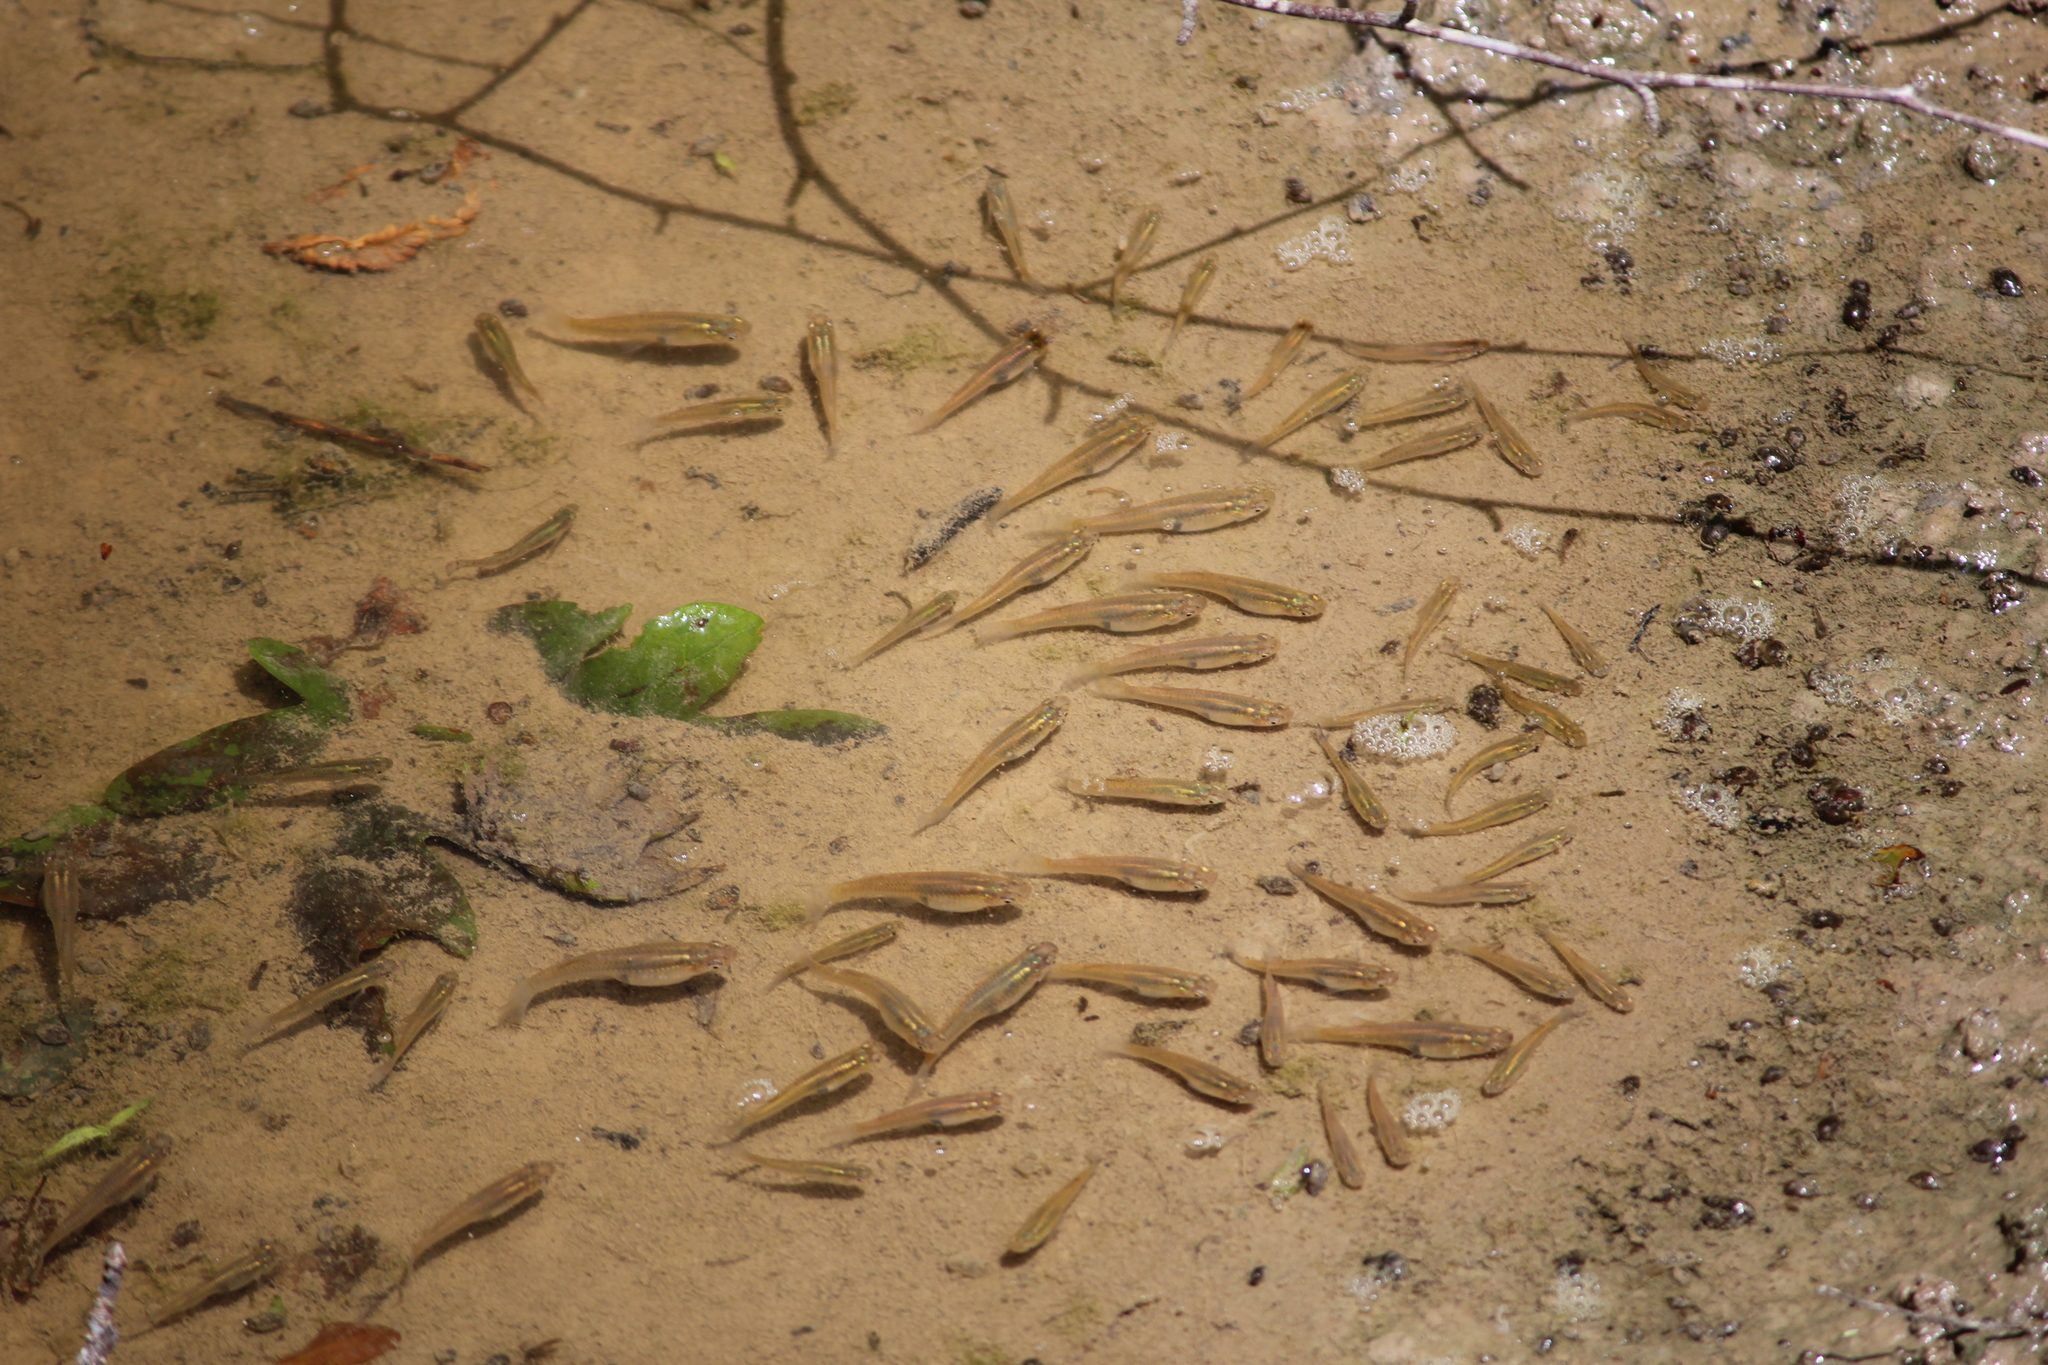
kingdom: Animalia
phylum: Chordata
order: Cyprinodontiformes
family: Poeciliidae
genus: Gambusia
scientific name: Gambusia holbrooki
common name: Eastern mosquitofish
